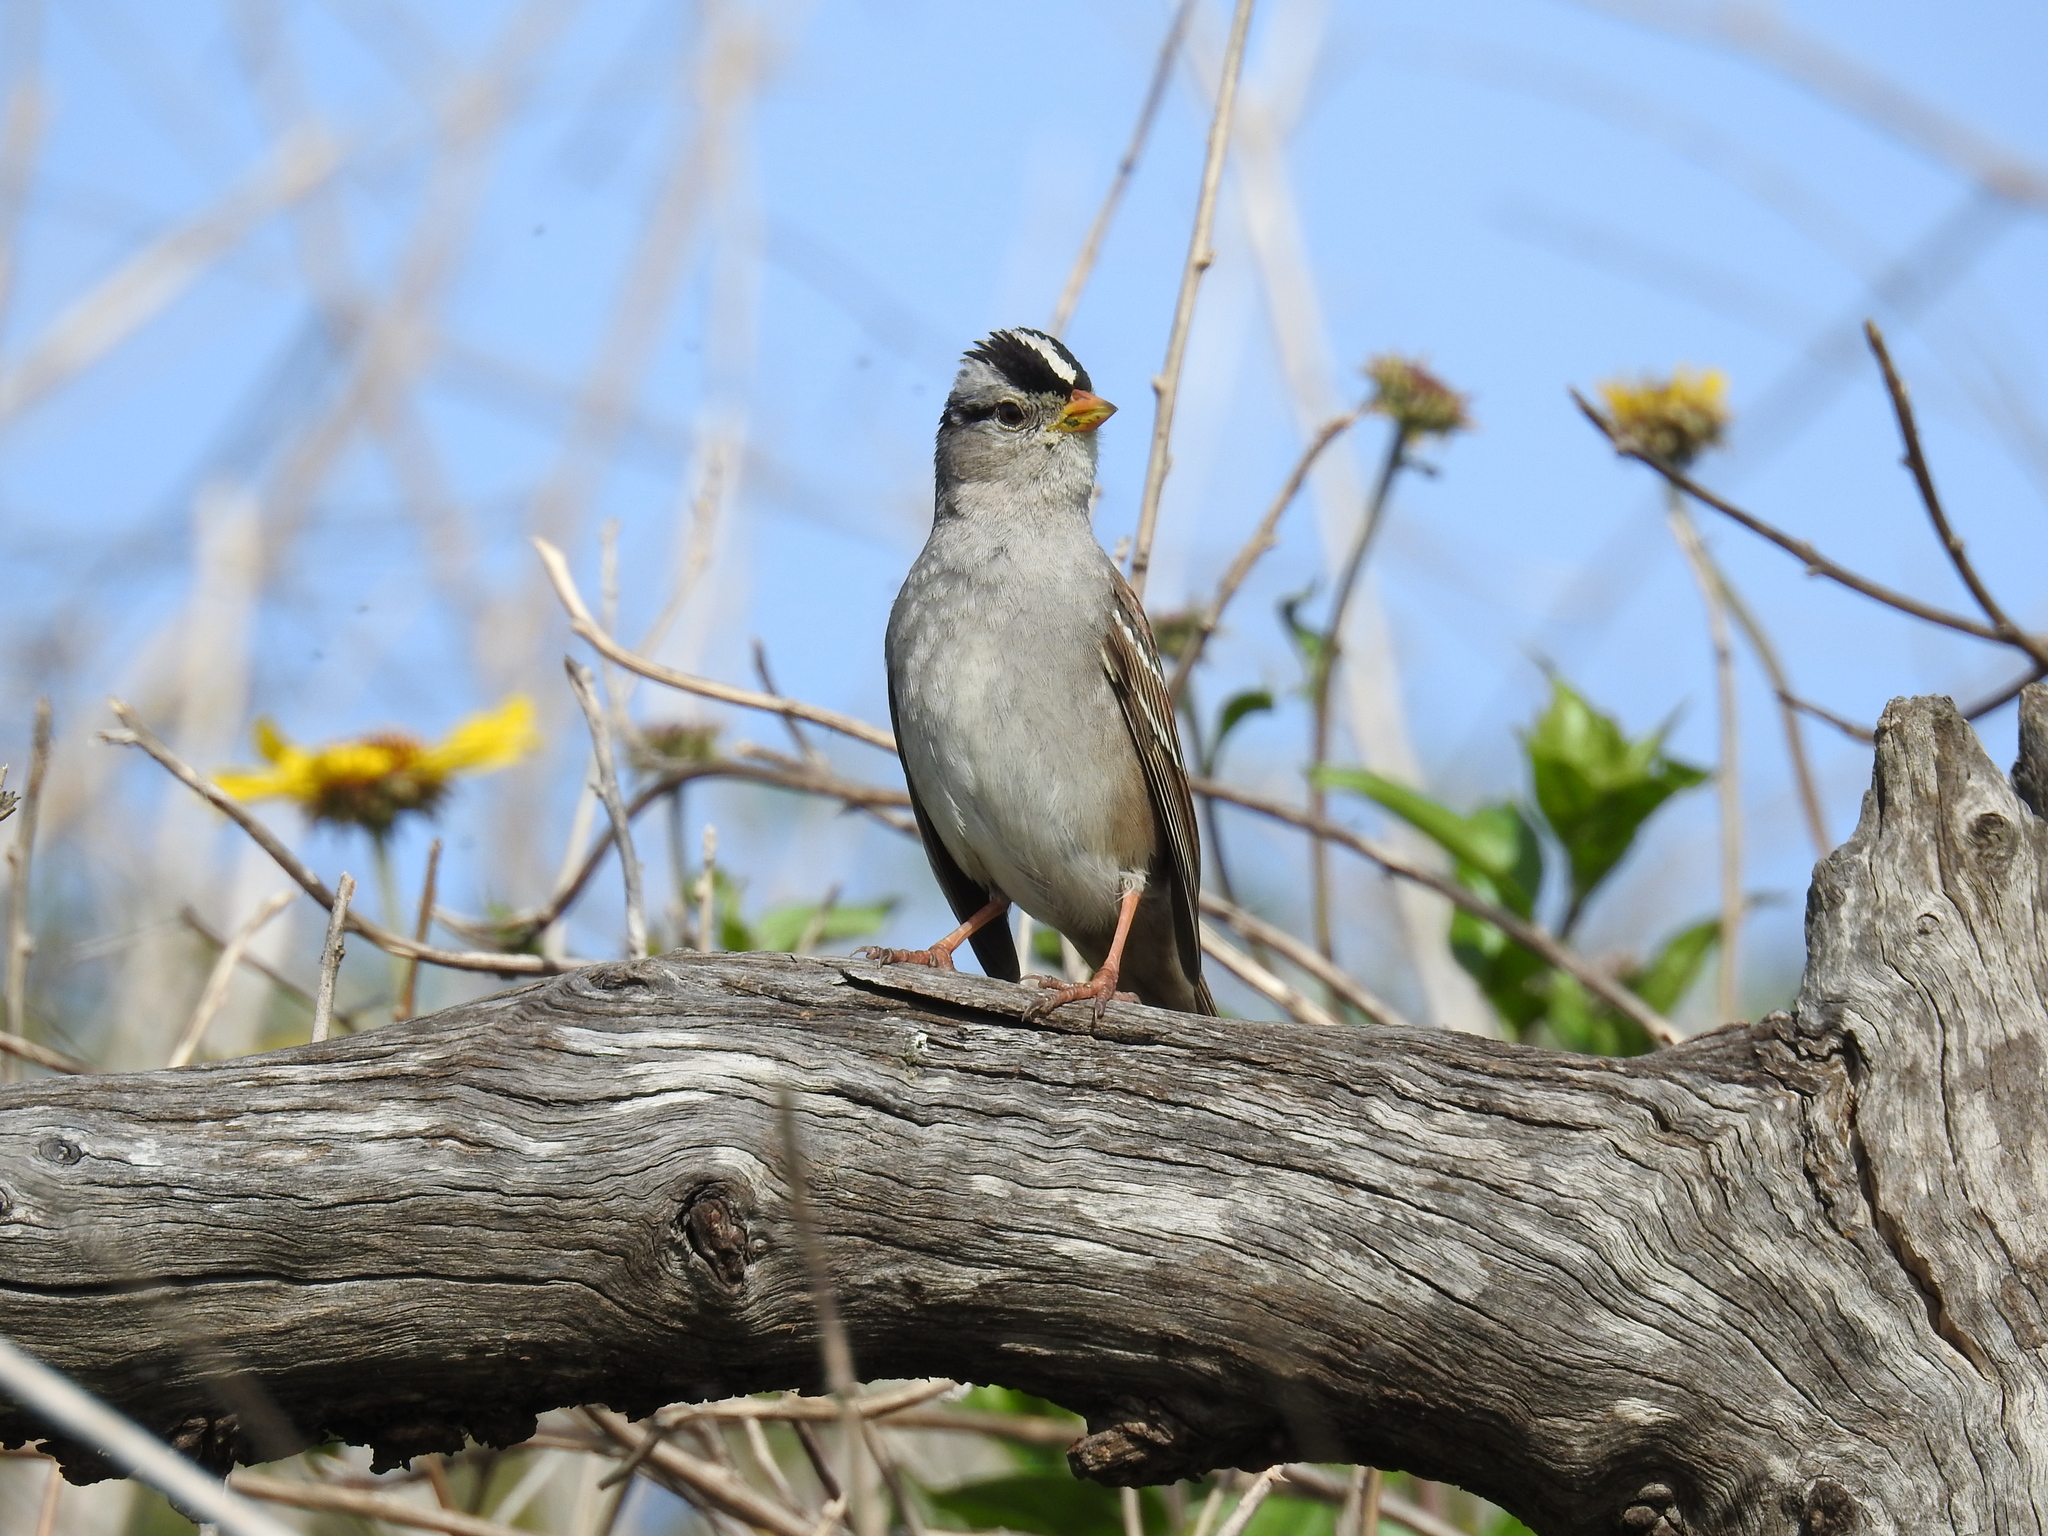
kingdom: Animalia
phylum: Chordata
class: Aves
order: Passeriformes
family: Passerellidae
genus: Zonotrichia
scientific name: Zonotrichia leucophrys
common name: White-crowned sparrow
